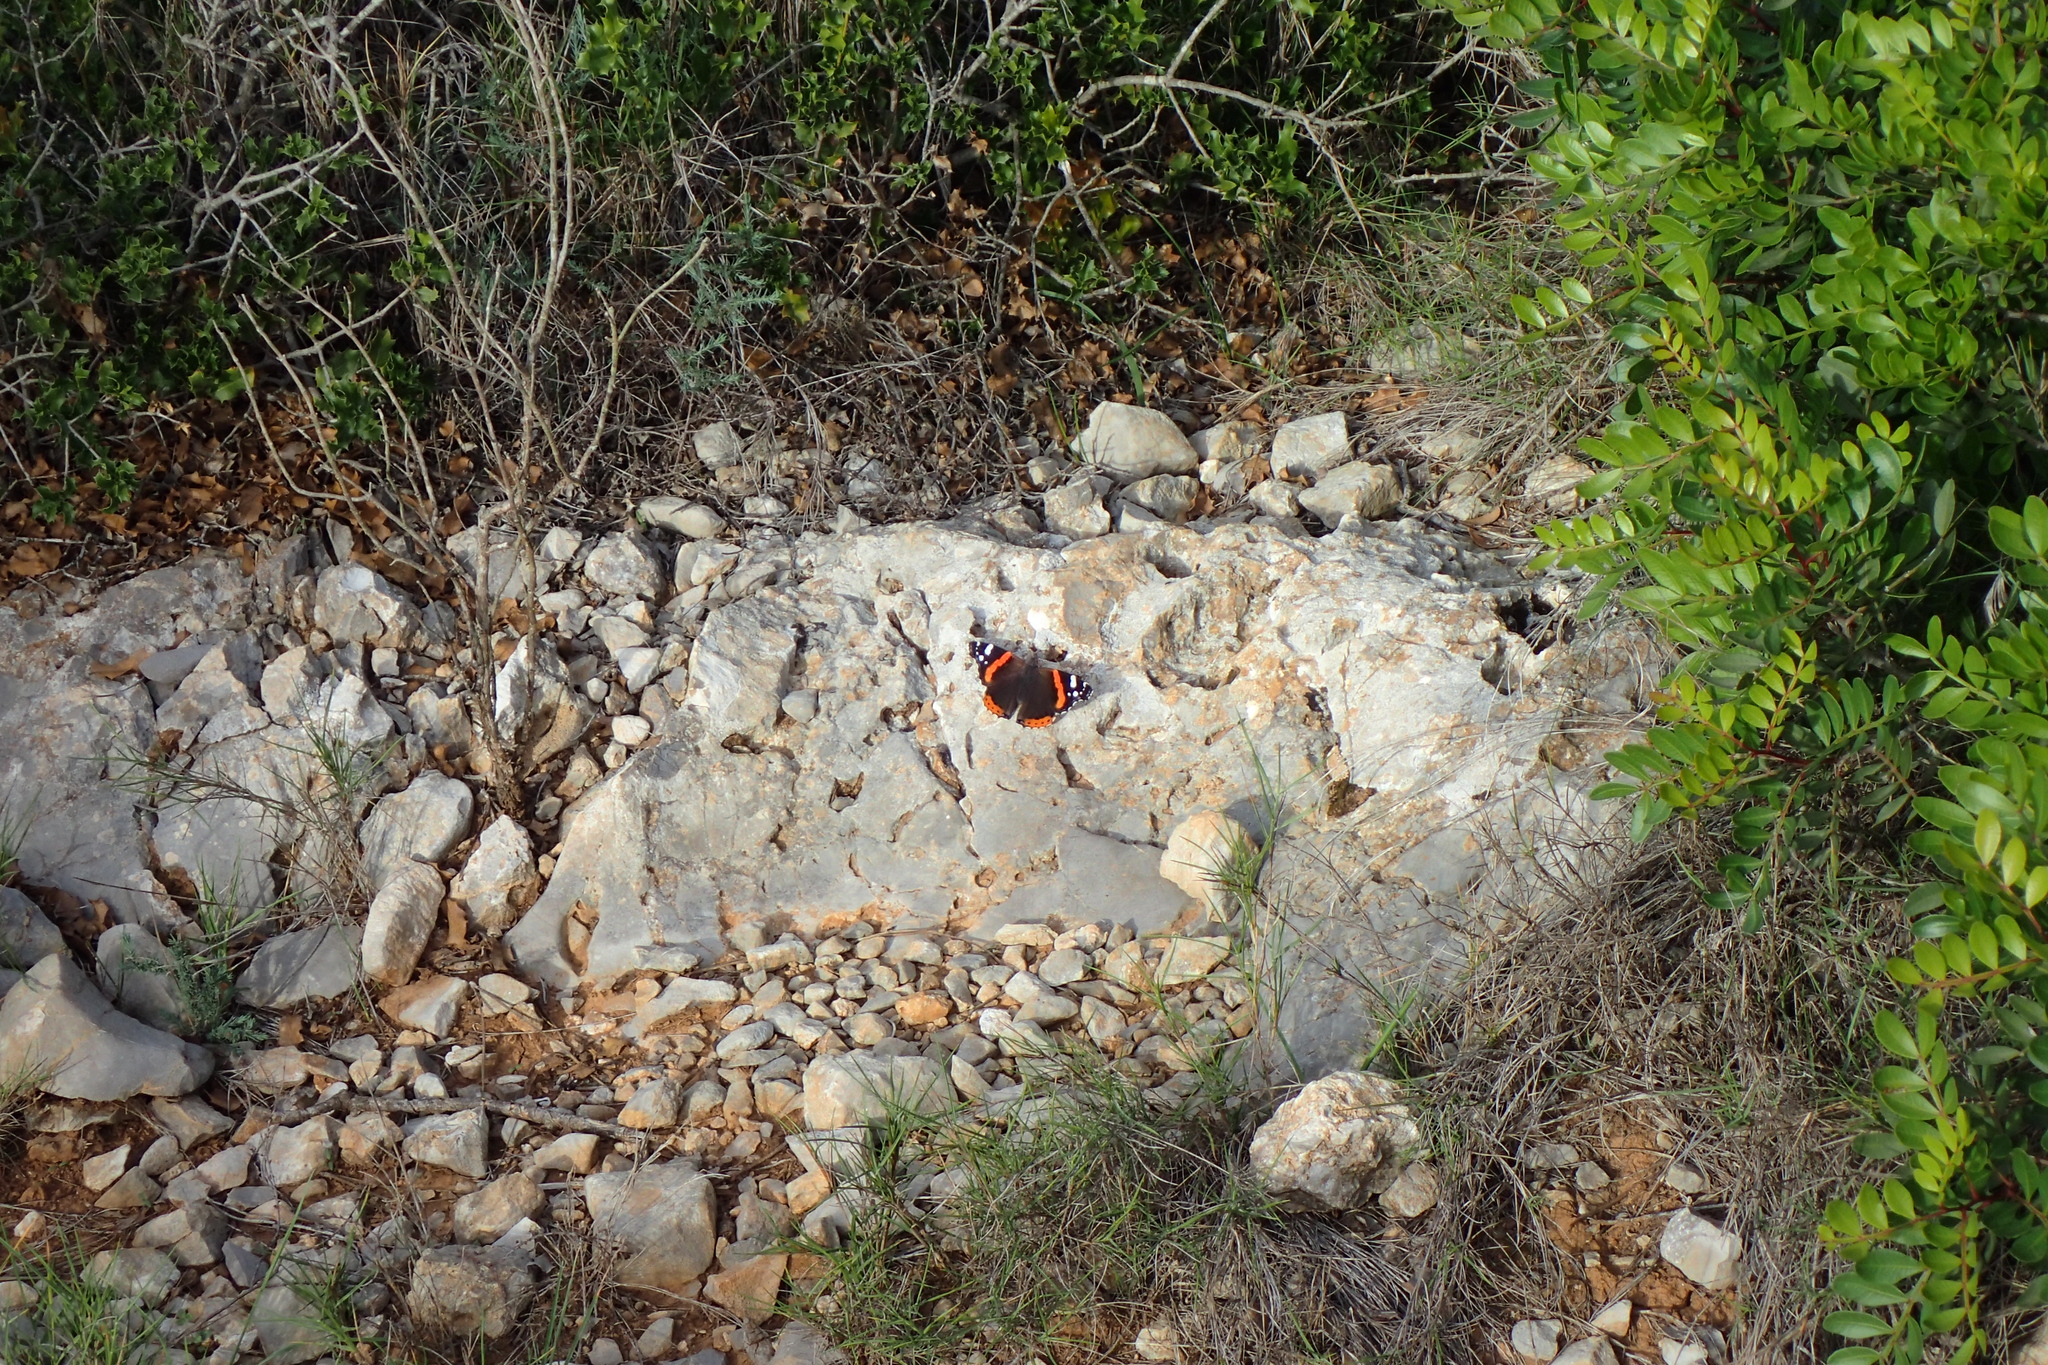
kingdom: Animalia
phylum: Arthropoda
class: Insecta
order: Lepidoptera
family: Nymphalidae
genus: Vanessa
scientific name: Vanessa atalanta
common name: Red admiral
